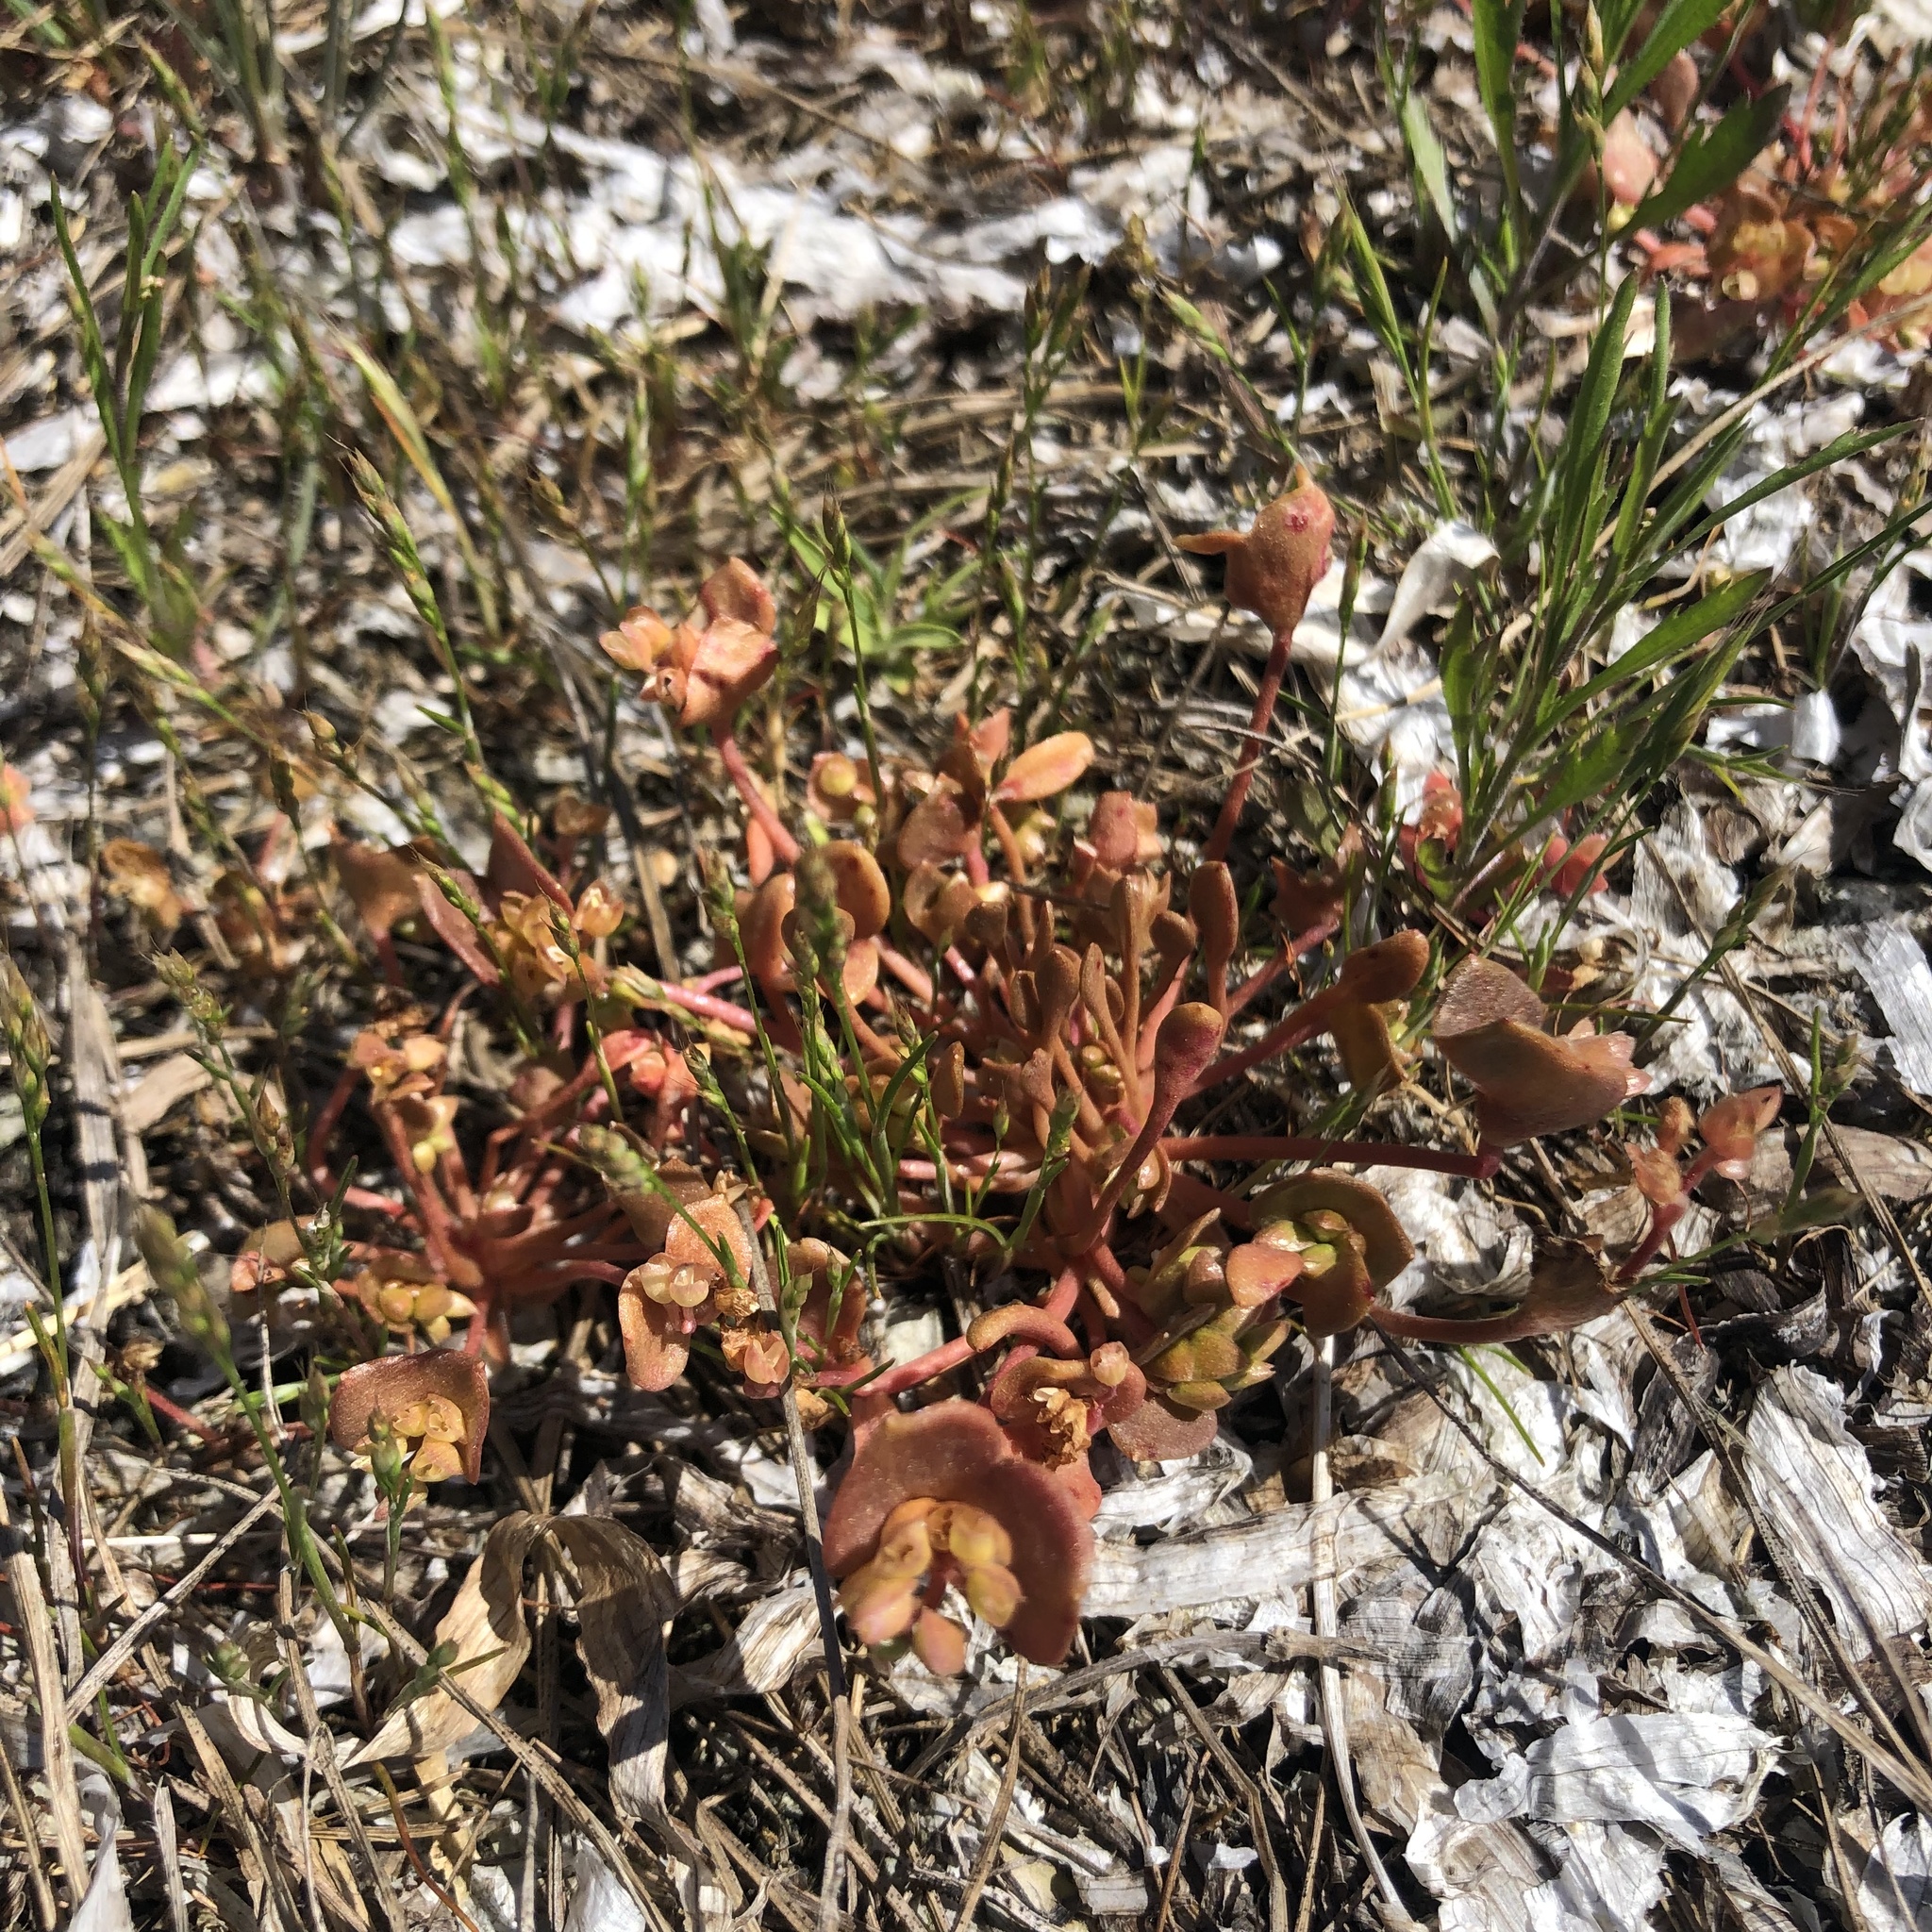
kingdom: Plantae
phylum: Tracheophyta
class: Magnoliopsida
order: Caryophyllales
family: Montiaceae
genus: Claytonia
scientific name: Claytonia rubra
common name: Erubescent miner's-lettuce
